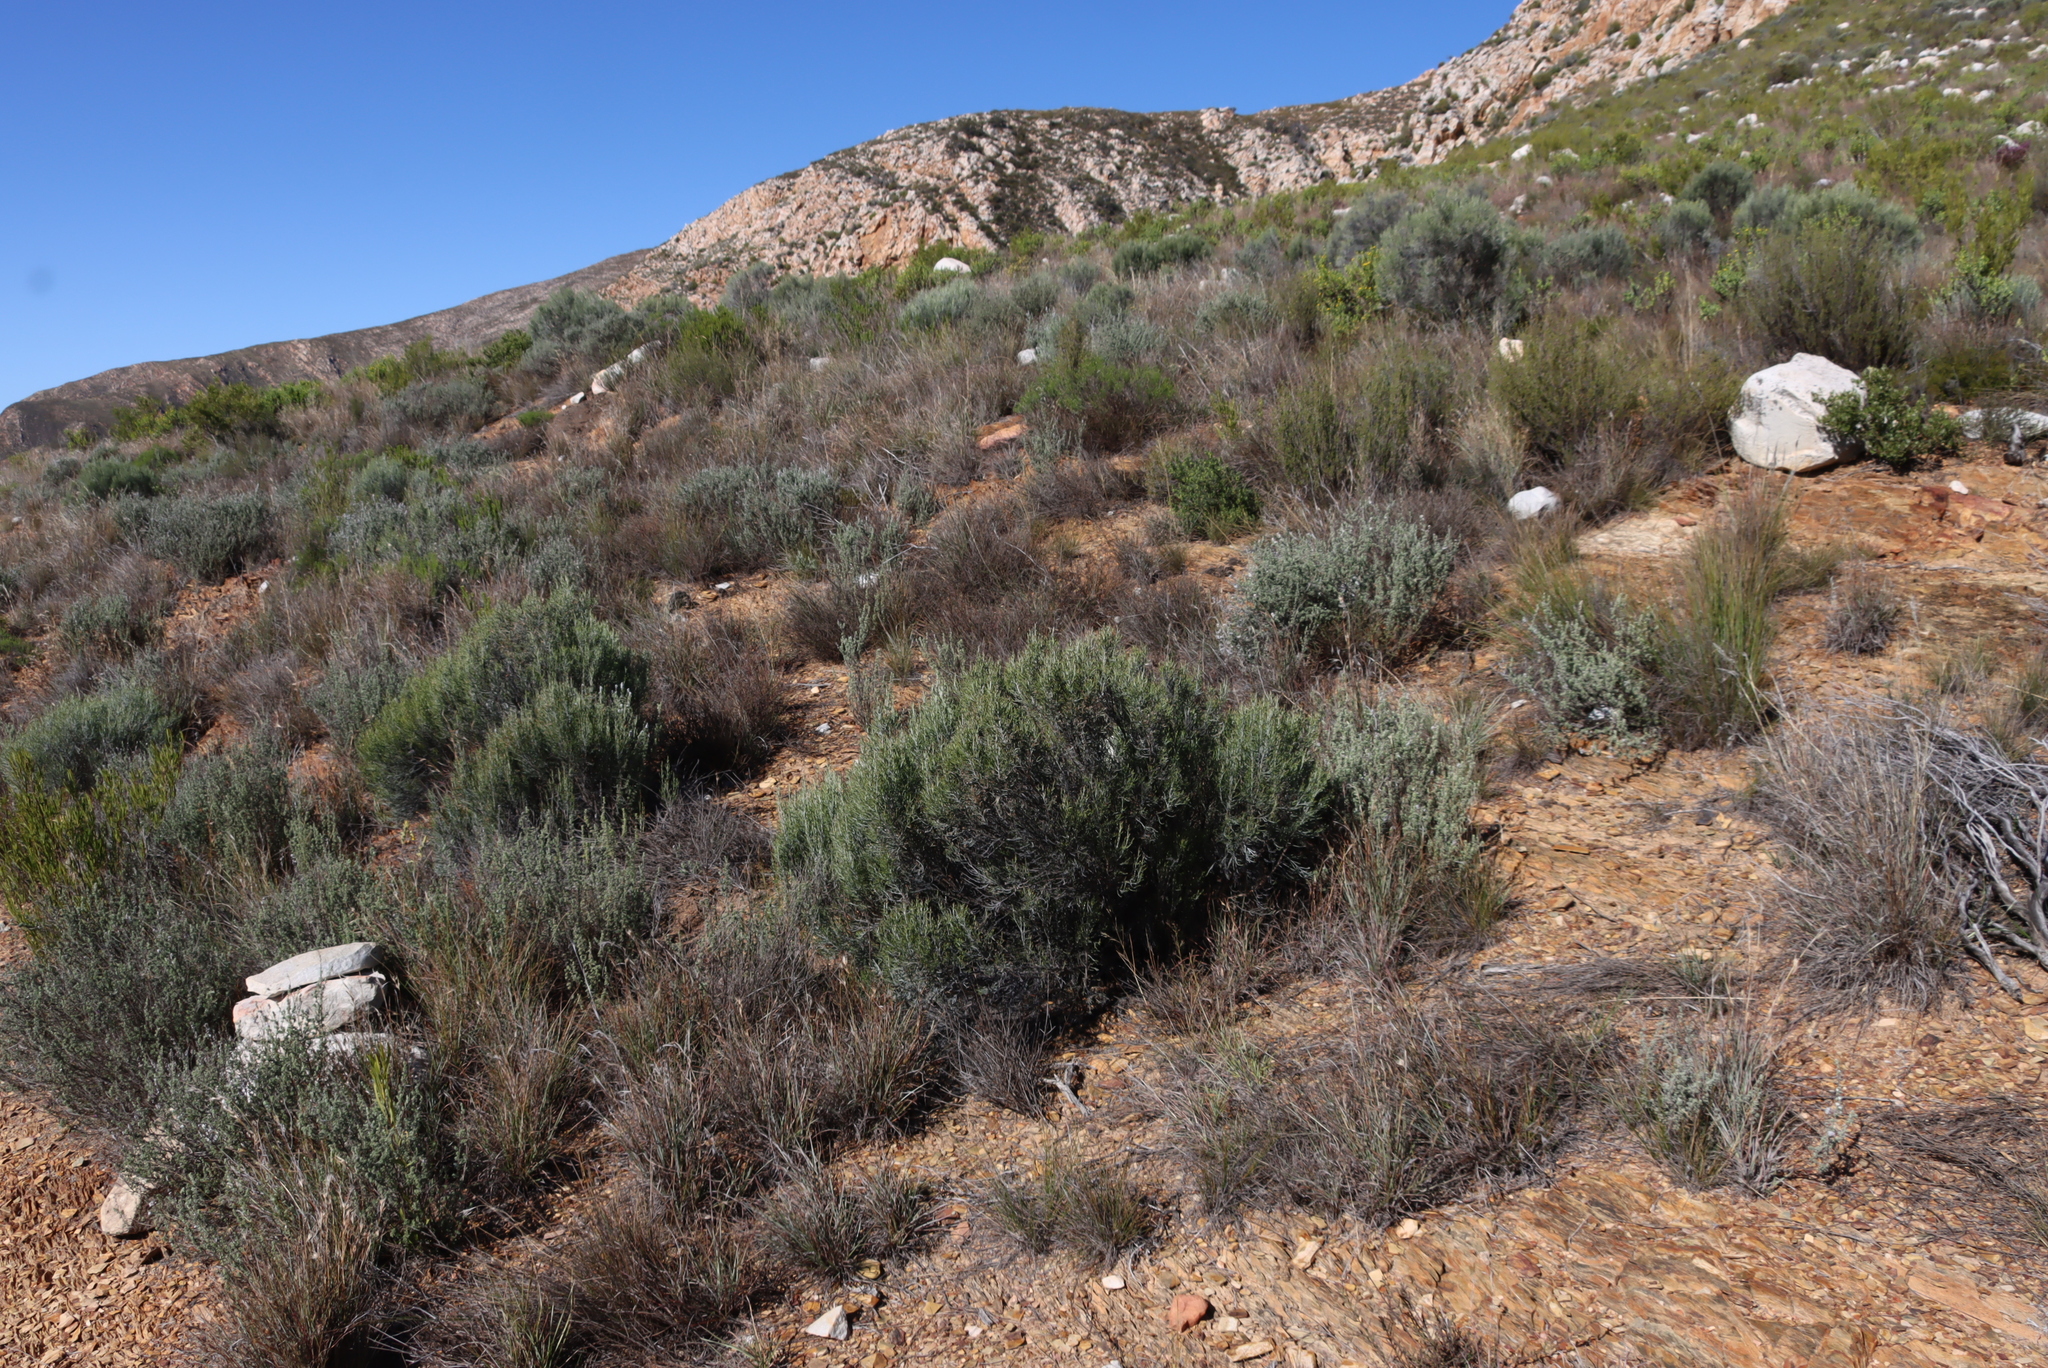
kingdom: Plantae
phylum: Tracheophyta
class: Magnoliopsida
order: Asterales
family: Asteraceae
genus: Dicerothamnus
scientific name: Dicerothamnus rhinocerotis
